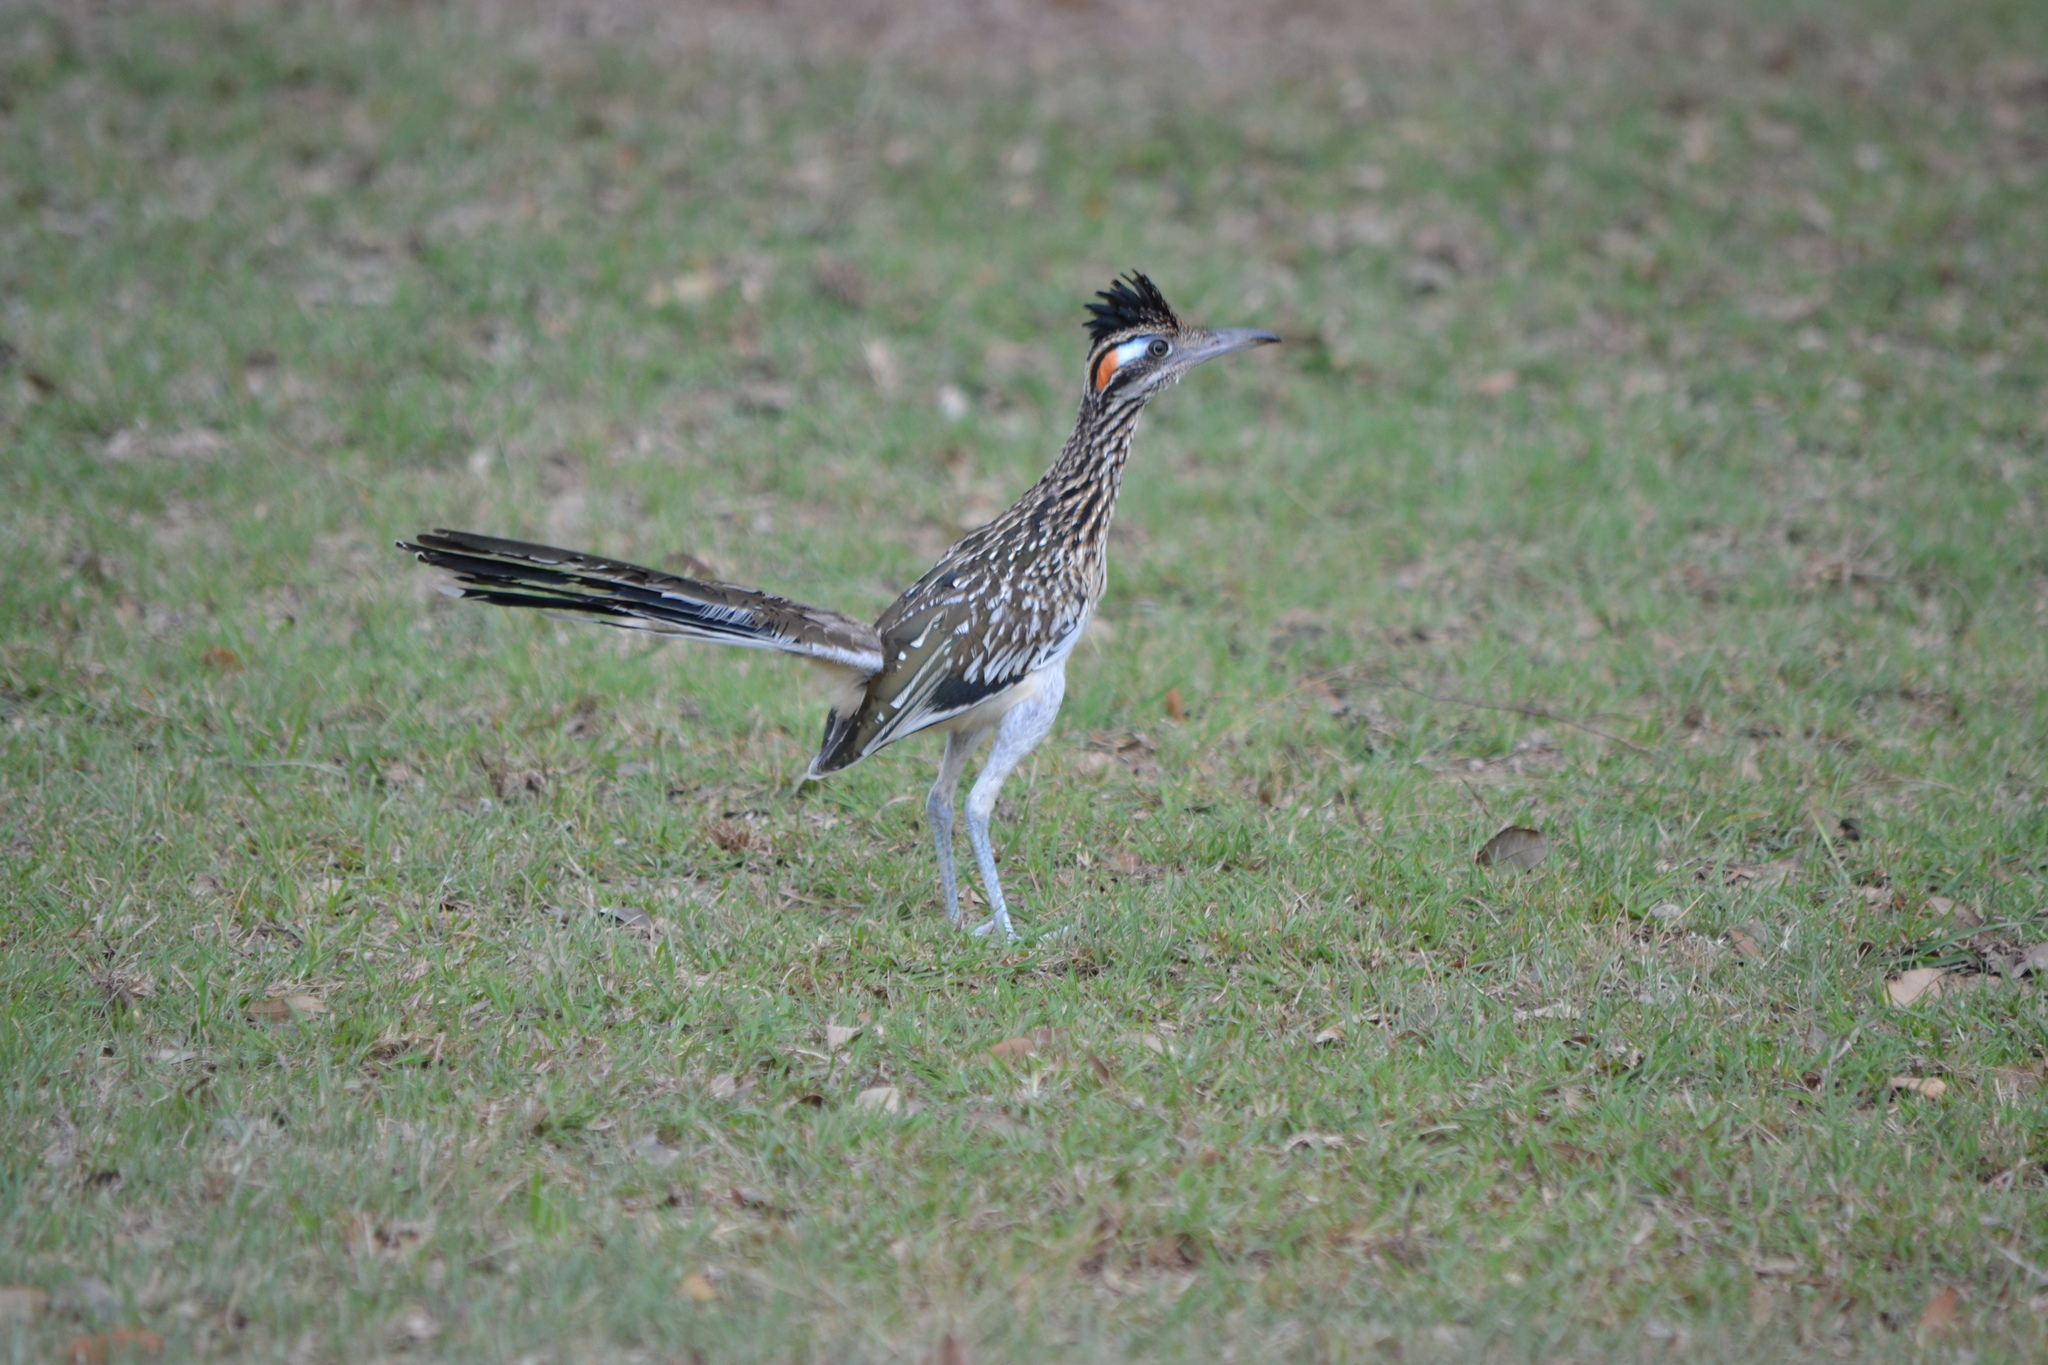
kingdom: Animalia
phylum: Chordata
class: Aves
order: Cuculiformes
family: Cuculidae
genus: Geococcyx
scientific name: Geococcyx californianus
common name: Greater roadrunner
